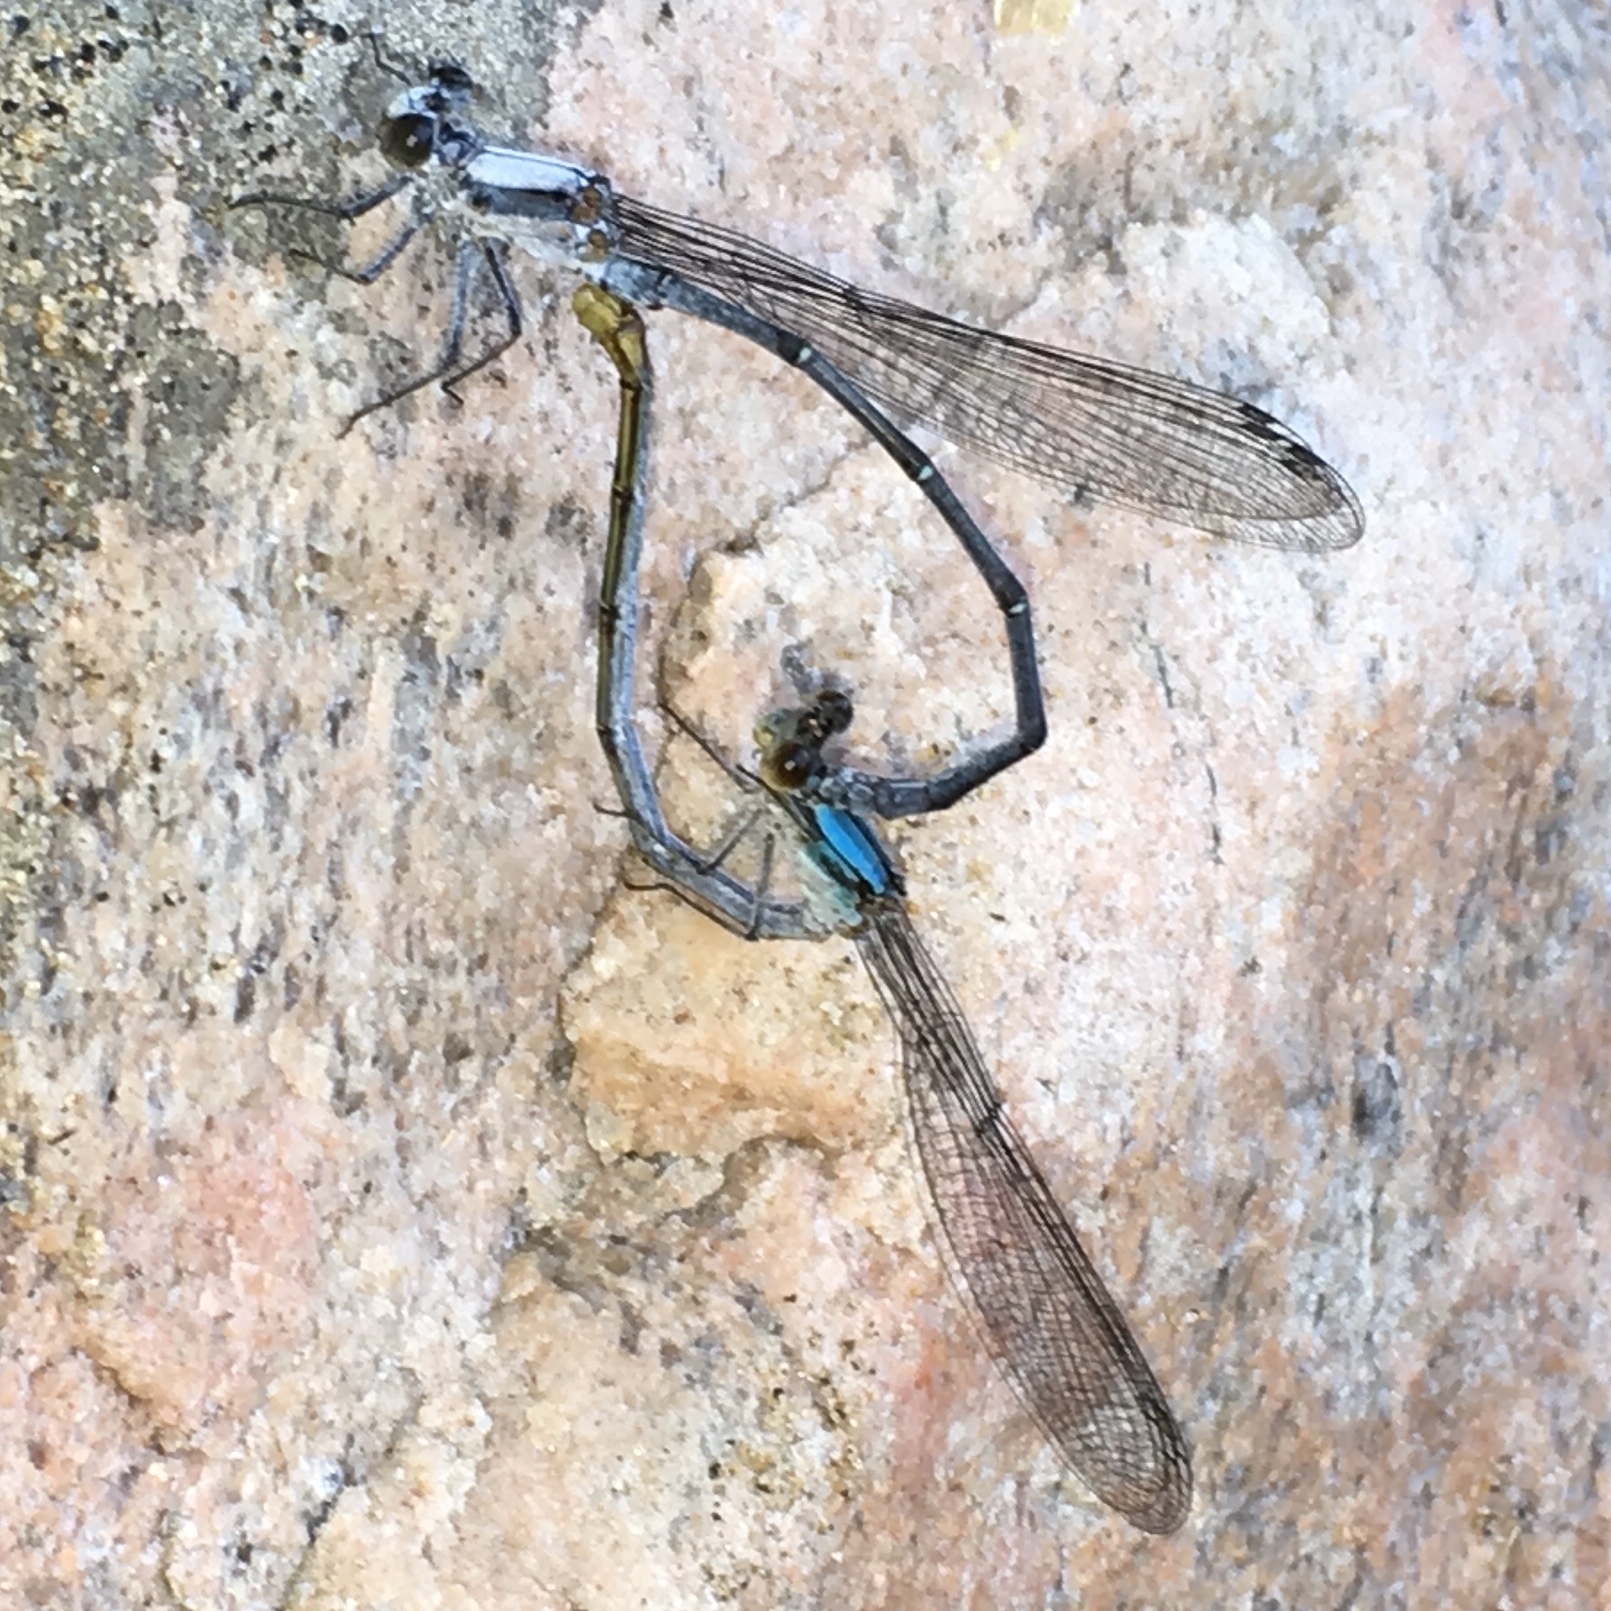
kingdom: Animalia
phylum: Arthropoda
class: Insecta
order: Odonata
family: Coenagrionidae
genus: Argia
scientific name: Argia moesta
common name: Powdered dancer
